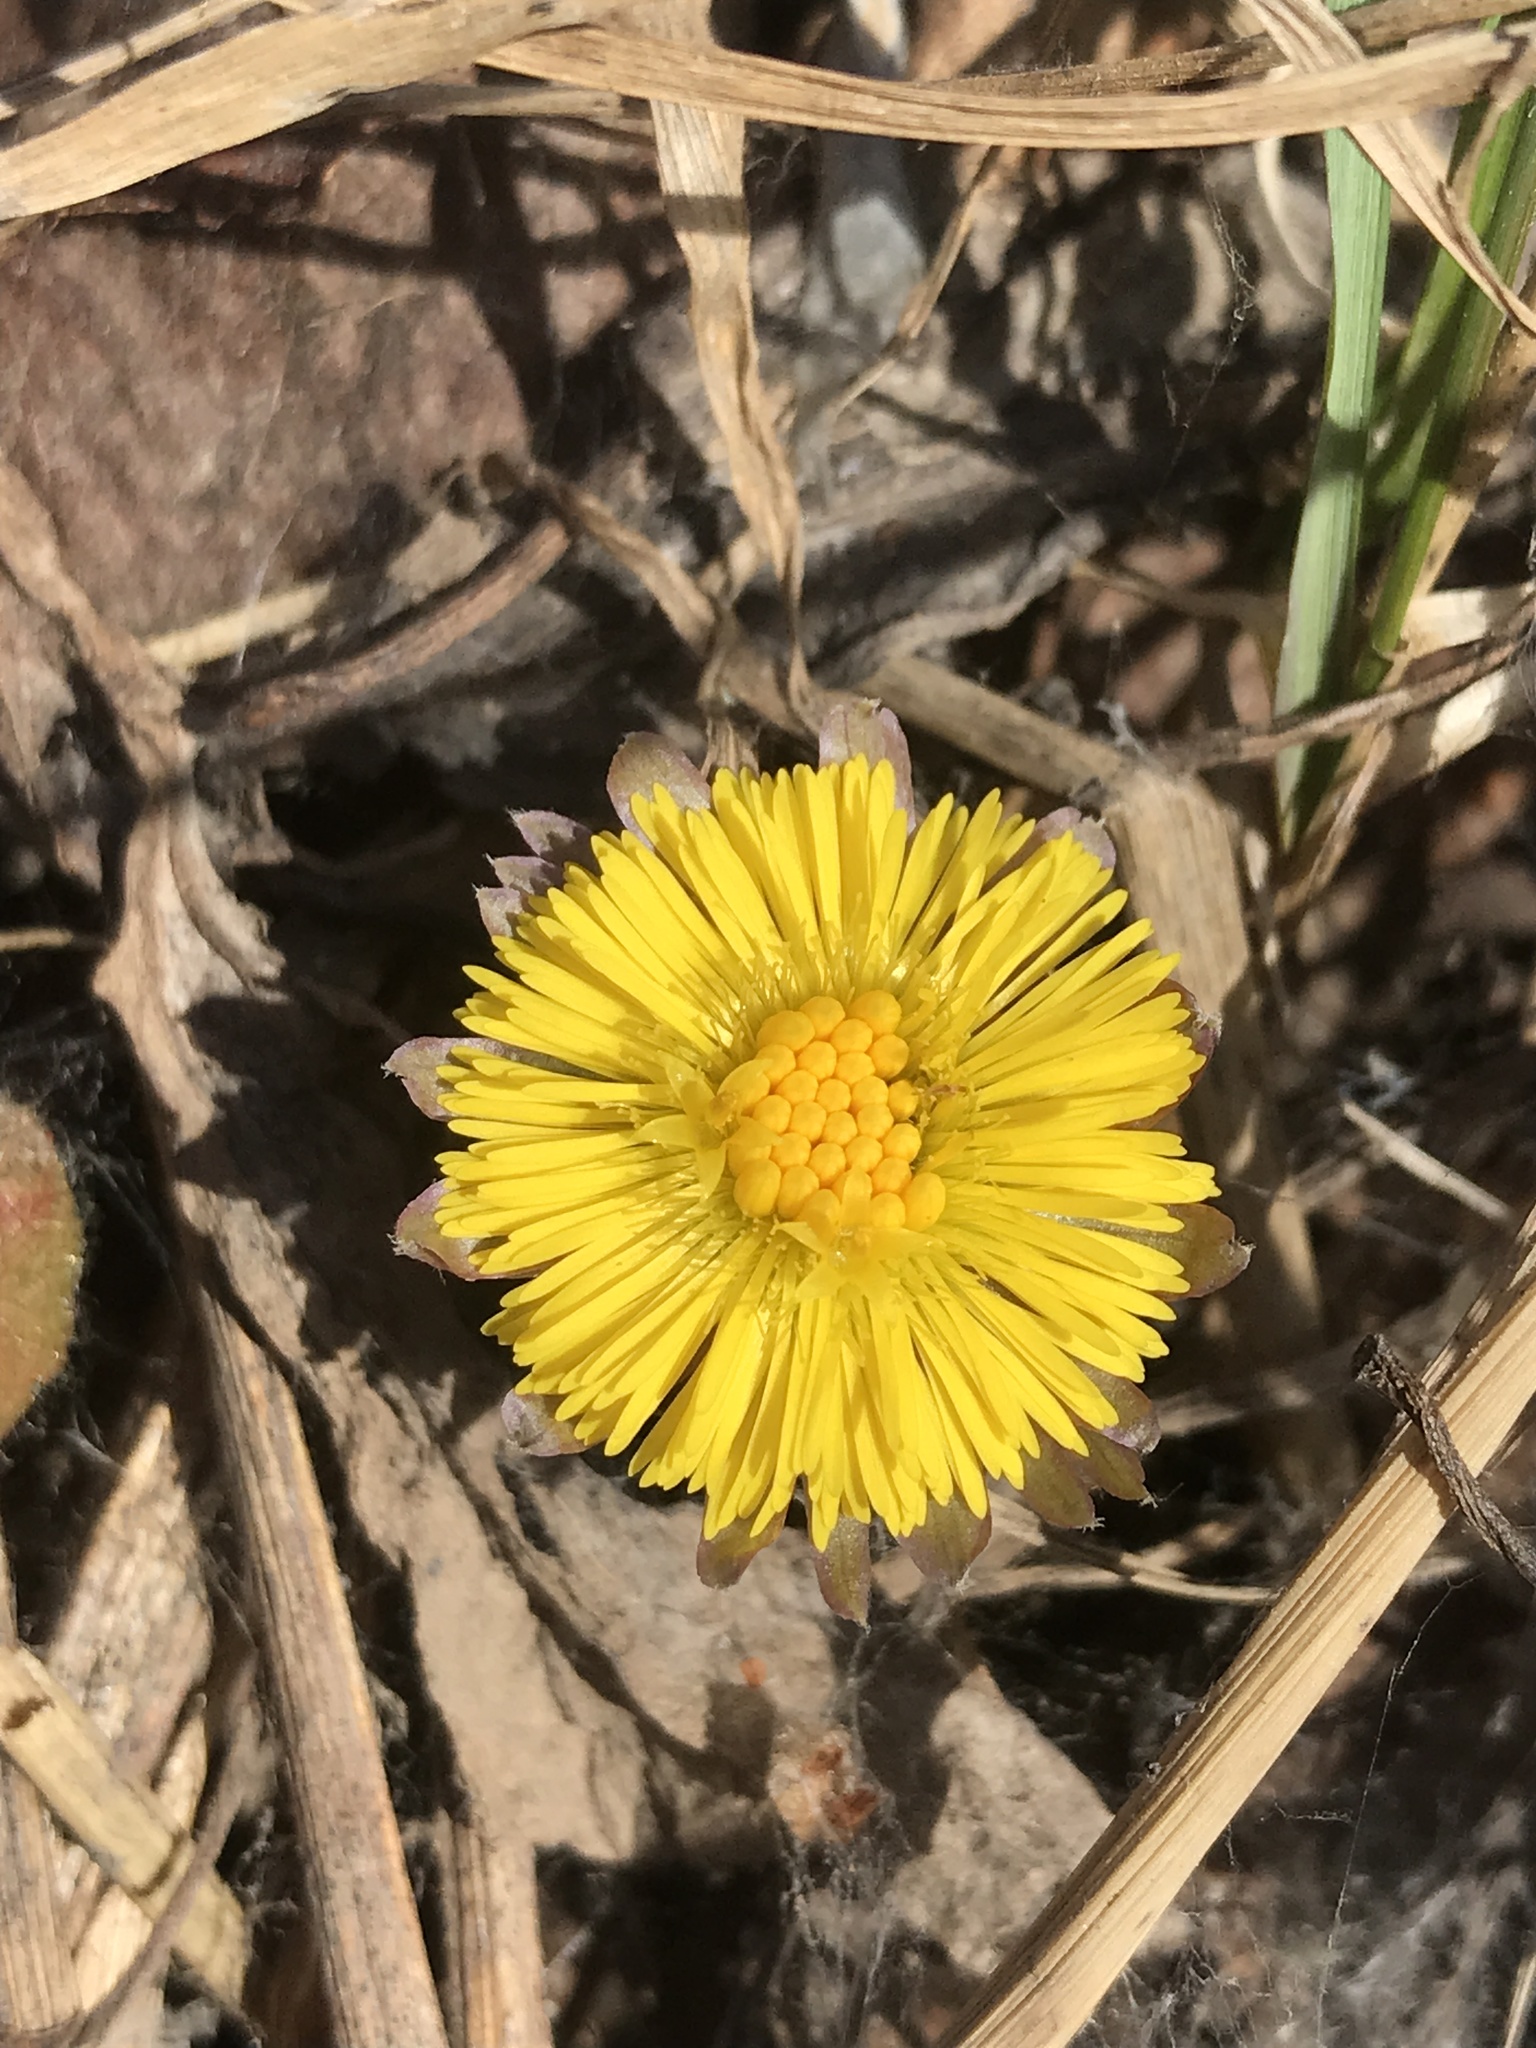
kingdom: Plantae
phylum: Tracheophyta
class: Magnoliopsida
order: Asterales
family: Asteraceae
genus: Tussilago
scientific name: Tussilago farfara
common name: Coltsfoot
